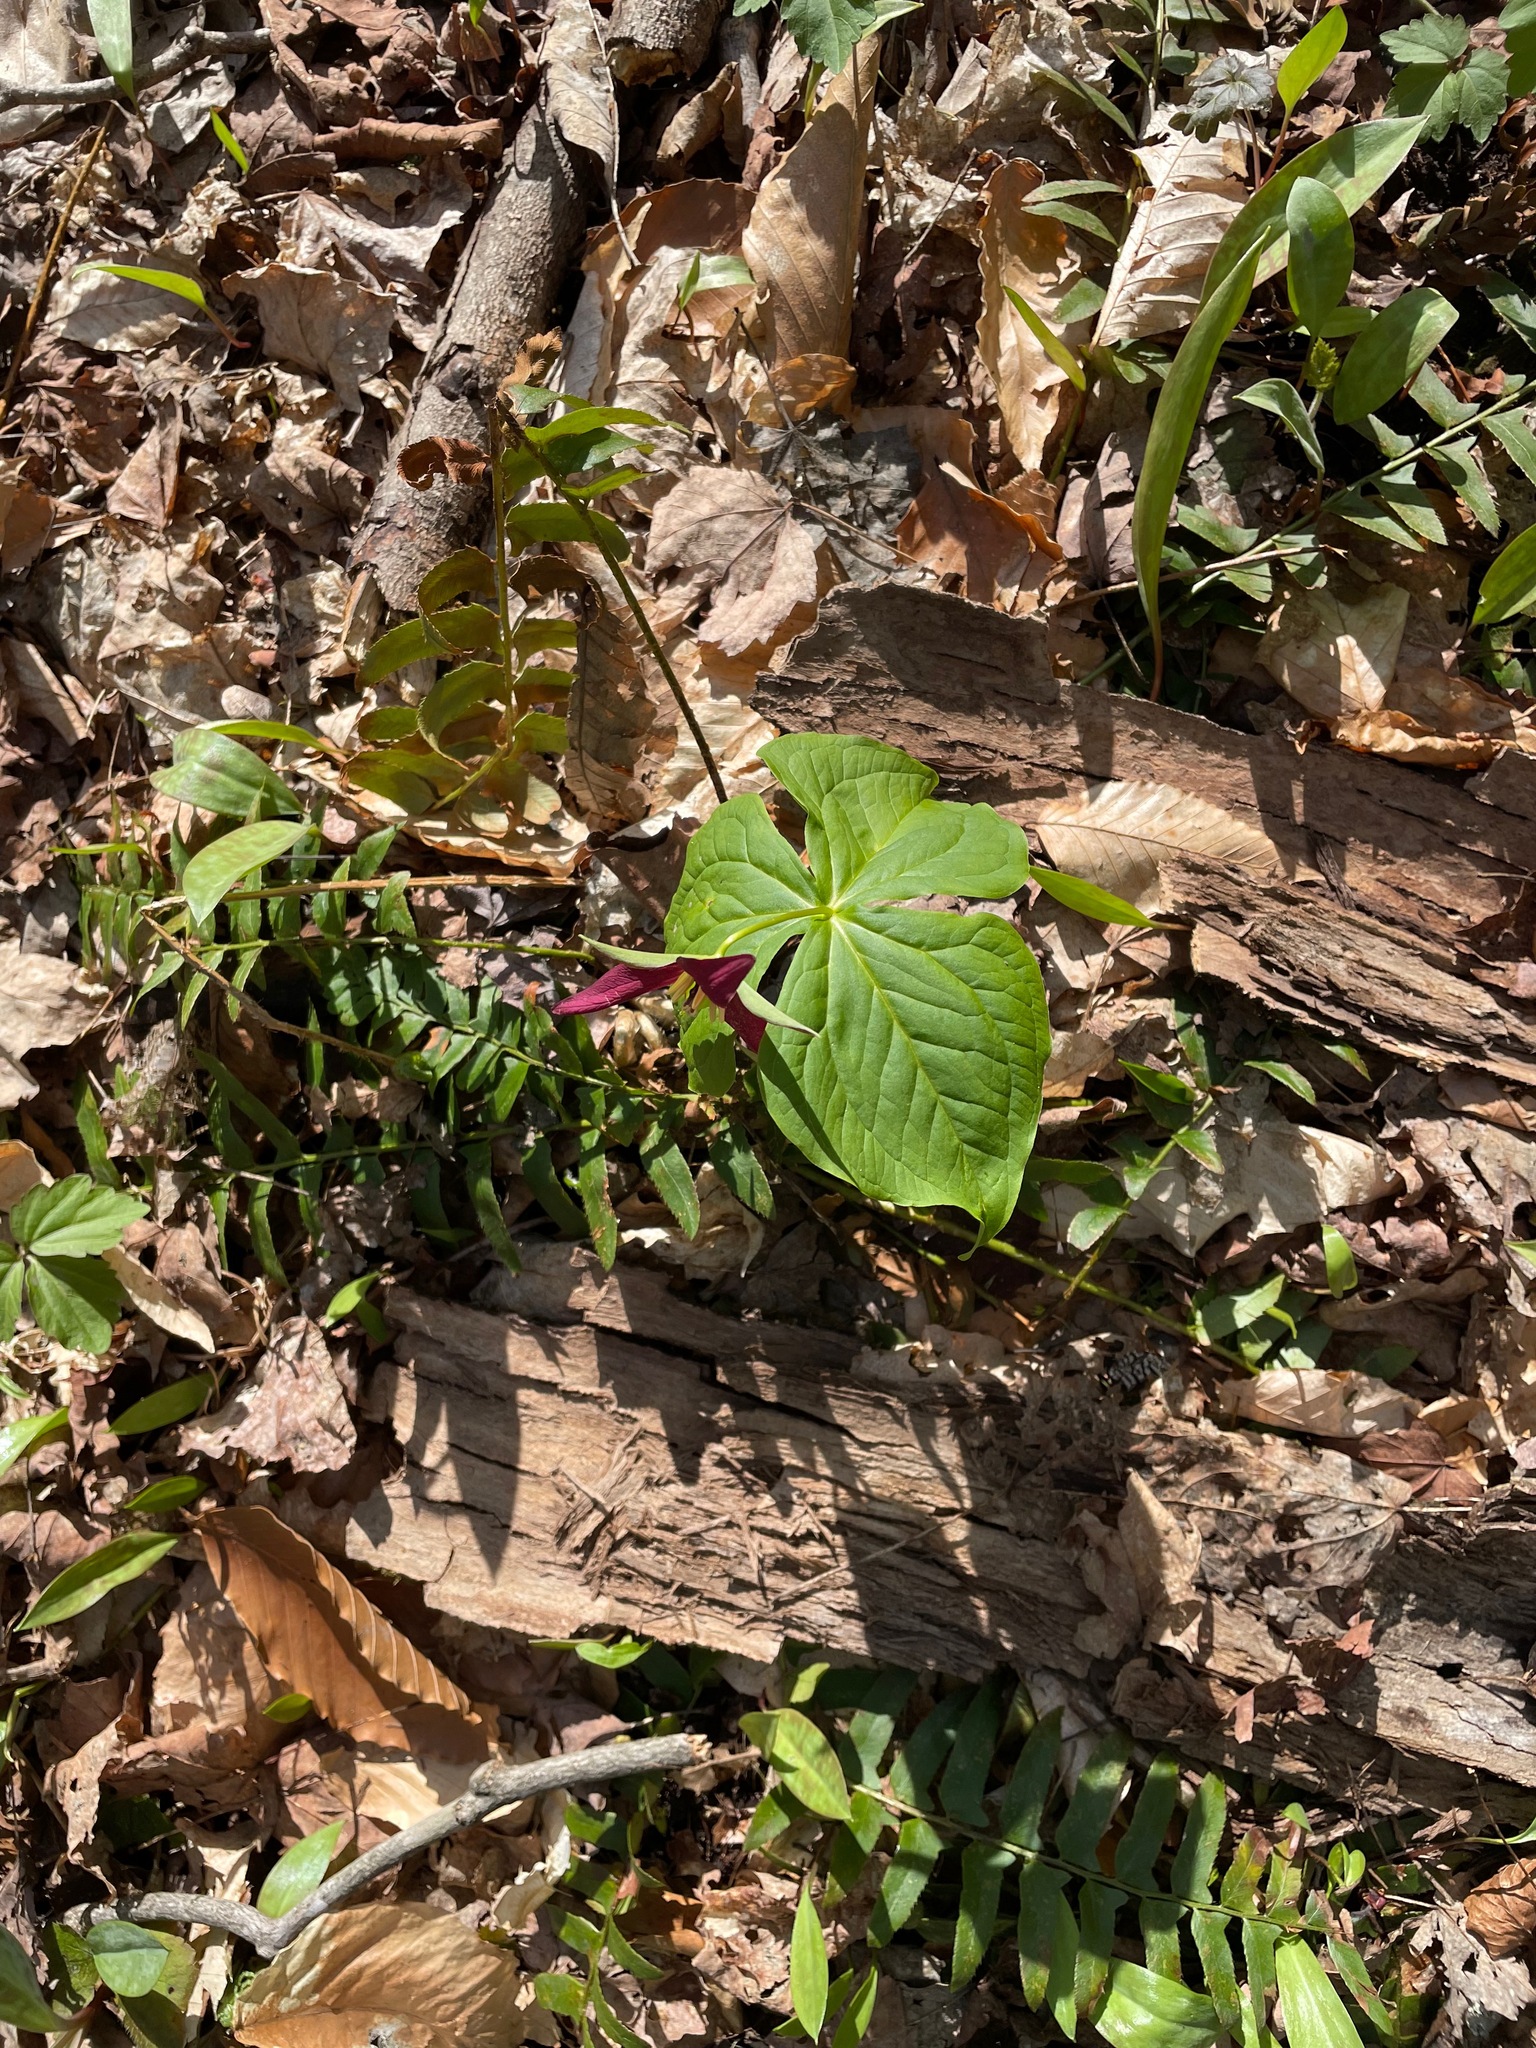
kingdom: Plantae
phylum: Tracheophyta
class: Liliopsida
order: Liliales
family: Melanthiaceae
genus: Trillium
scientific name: Trillium erectum
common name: Purple trillium
